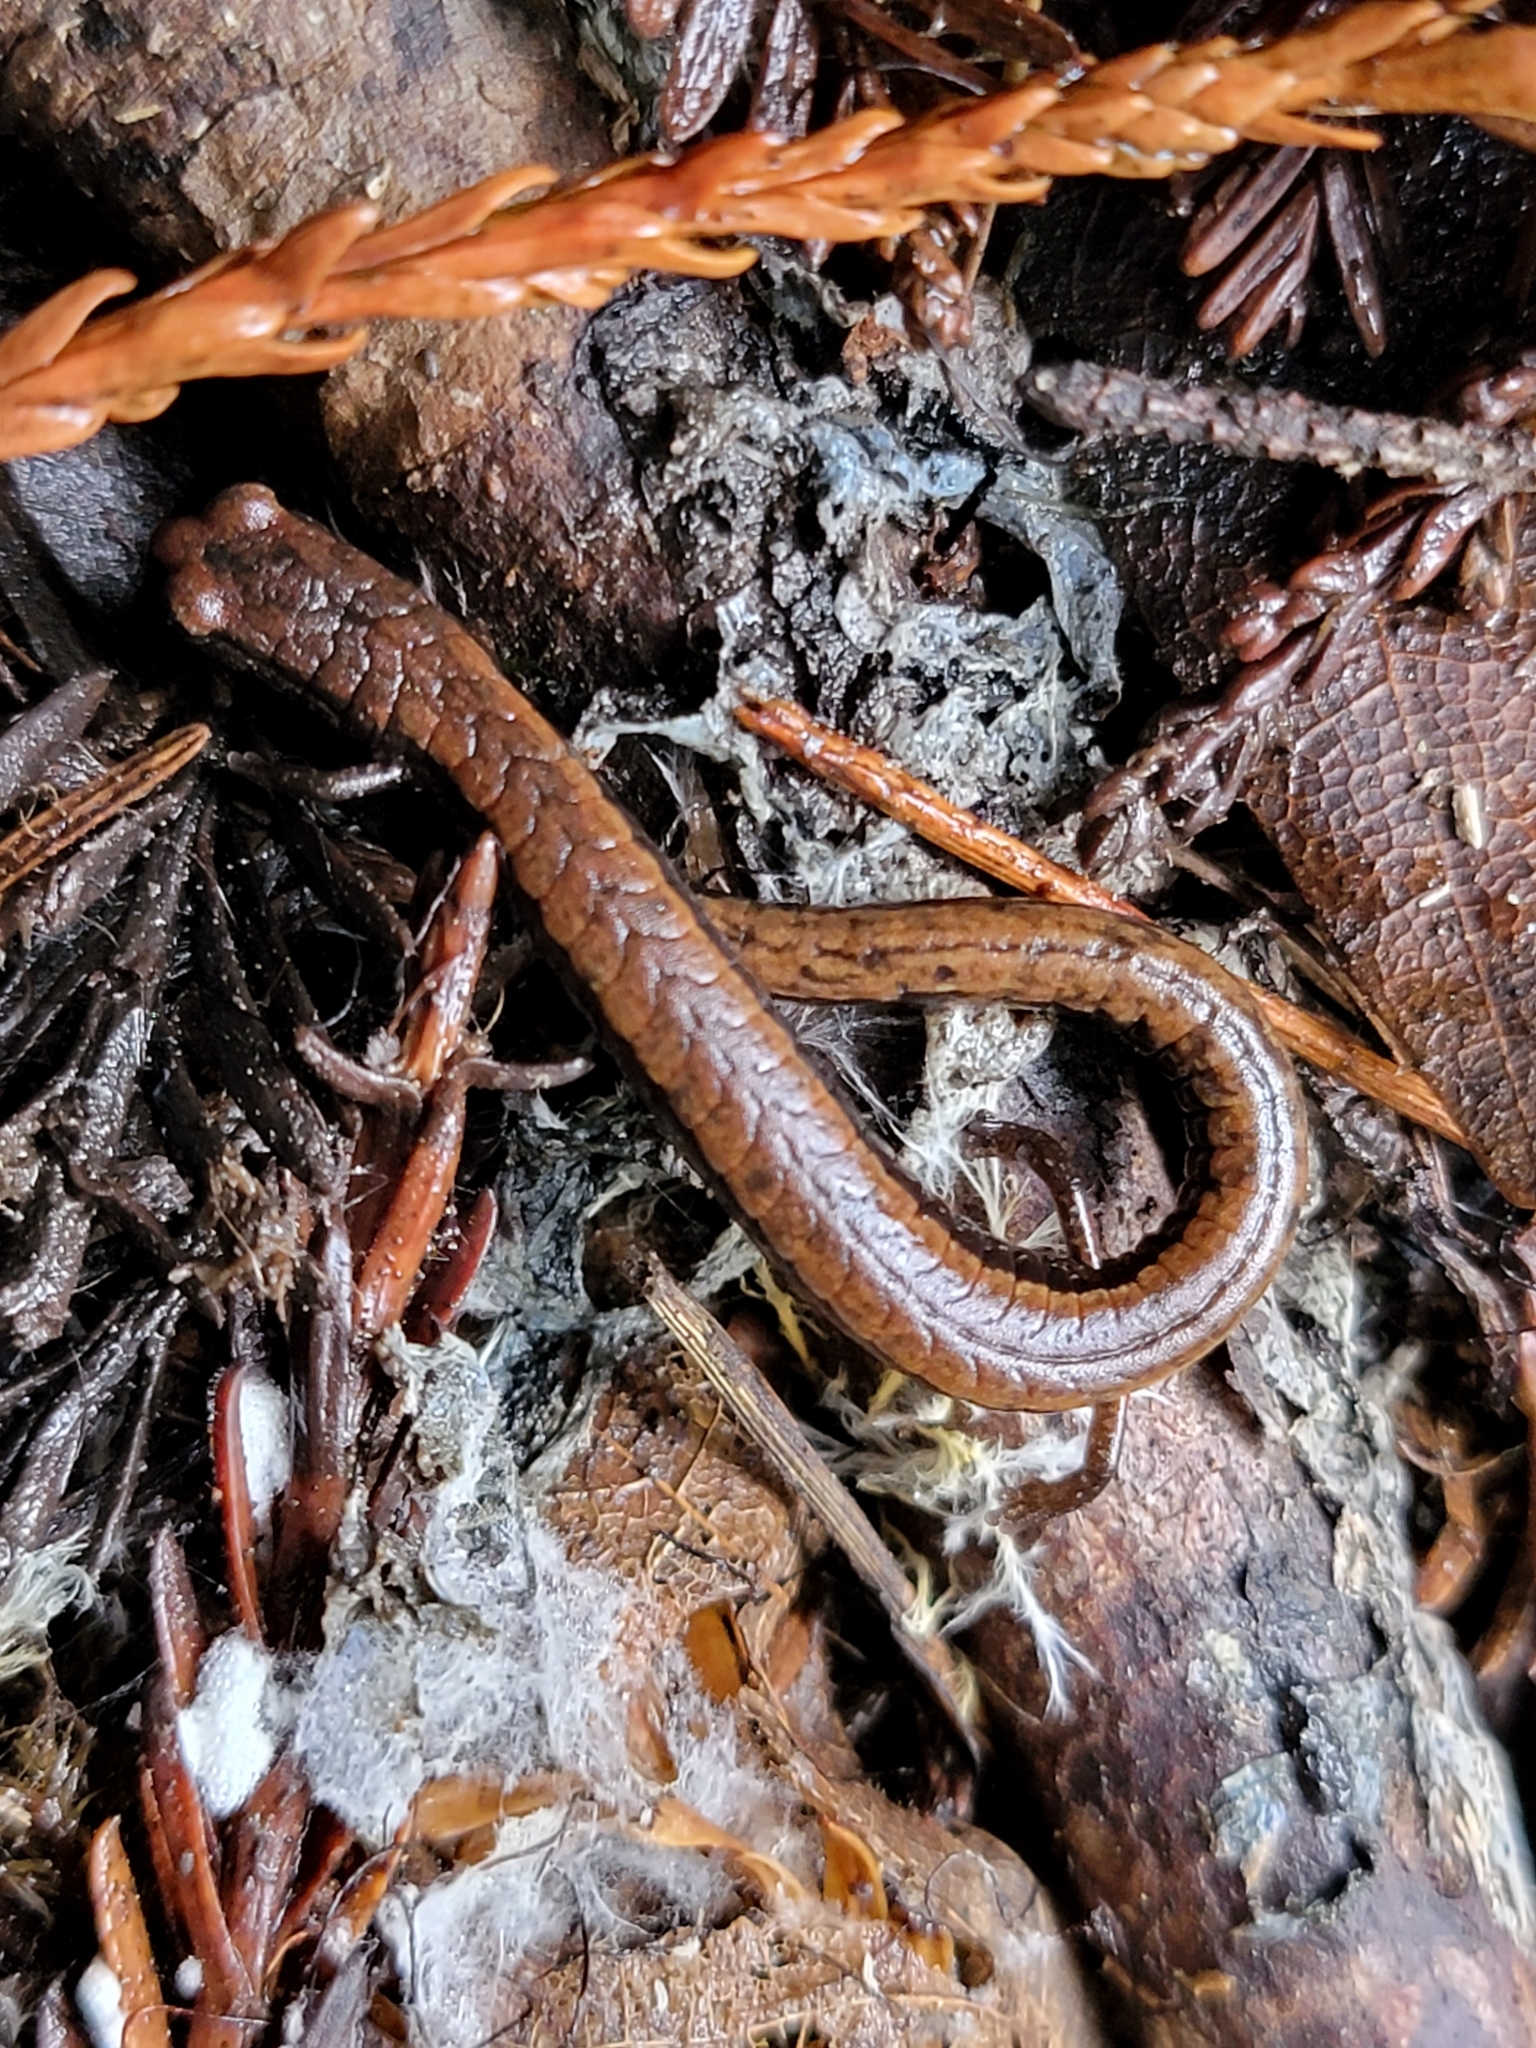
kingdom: Animalia
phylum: Chordata
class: Amphibia
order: Caudata
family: Plethodontidae
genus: Batrachoseps
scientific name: Batrachoseps attenuatus
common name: California slender salamander
